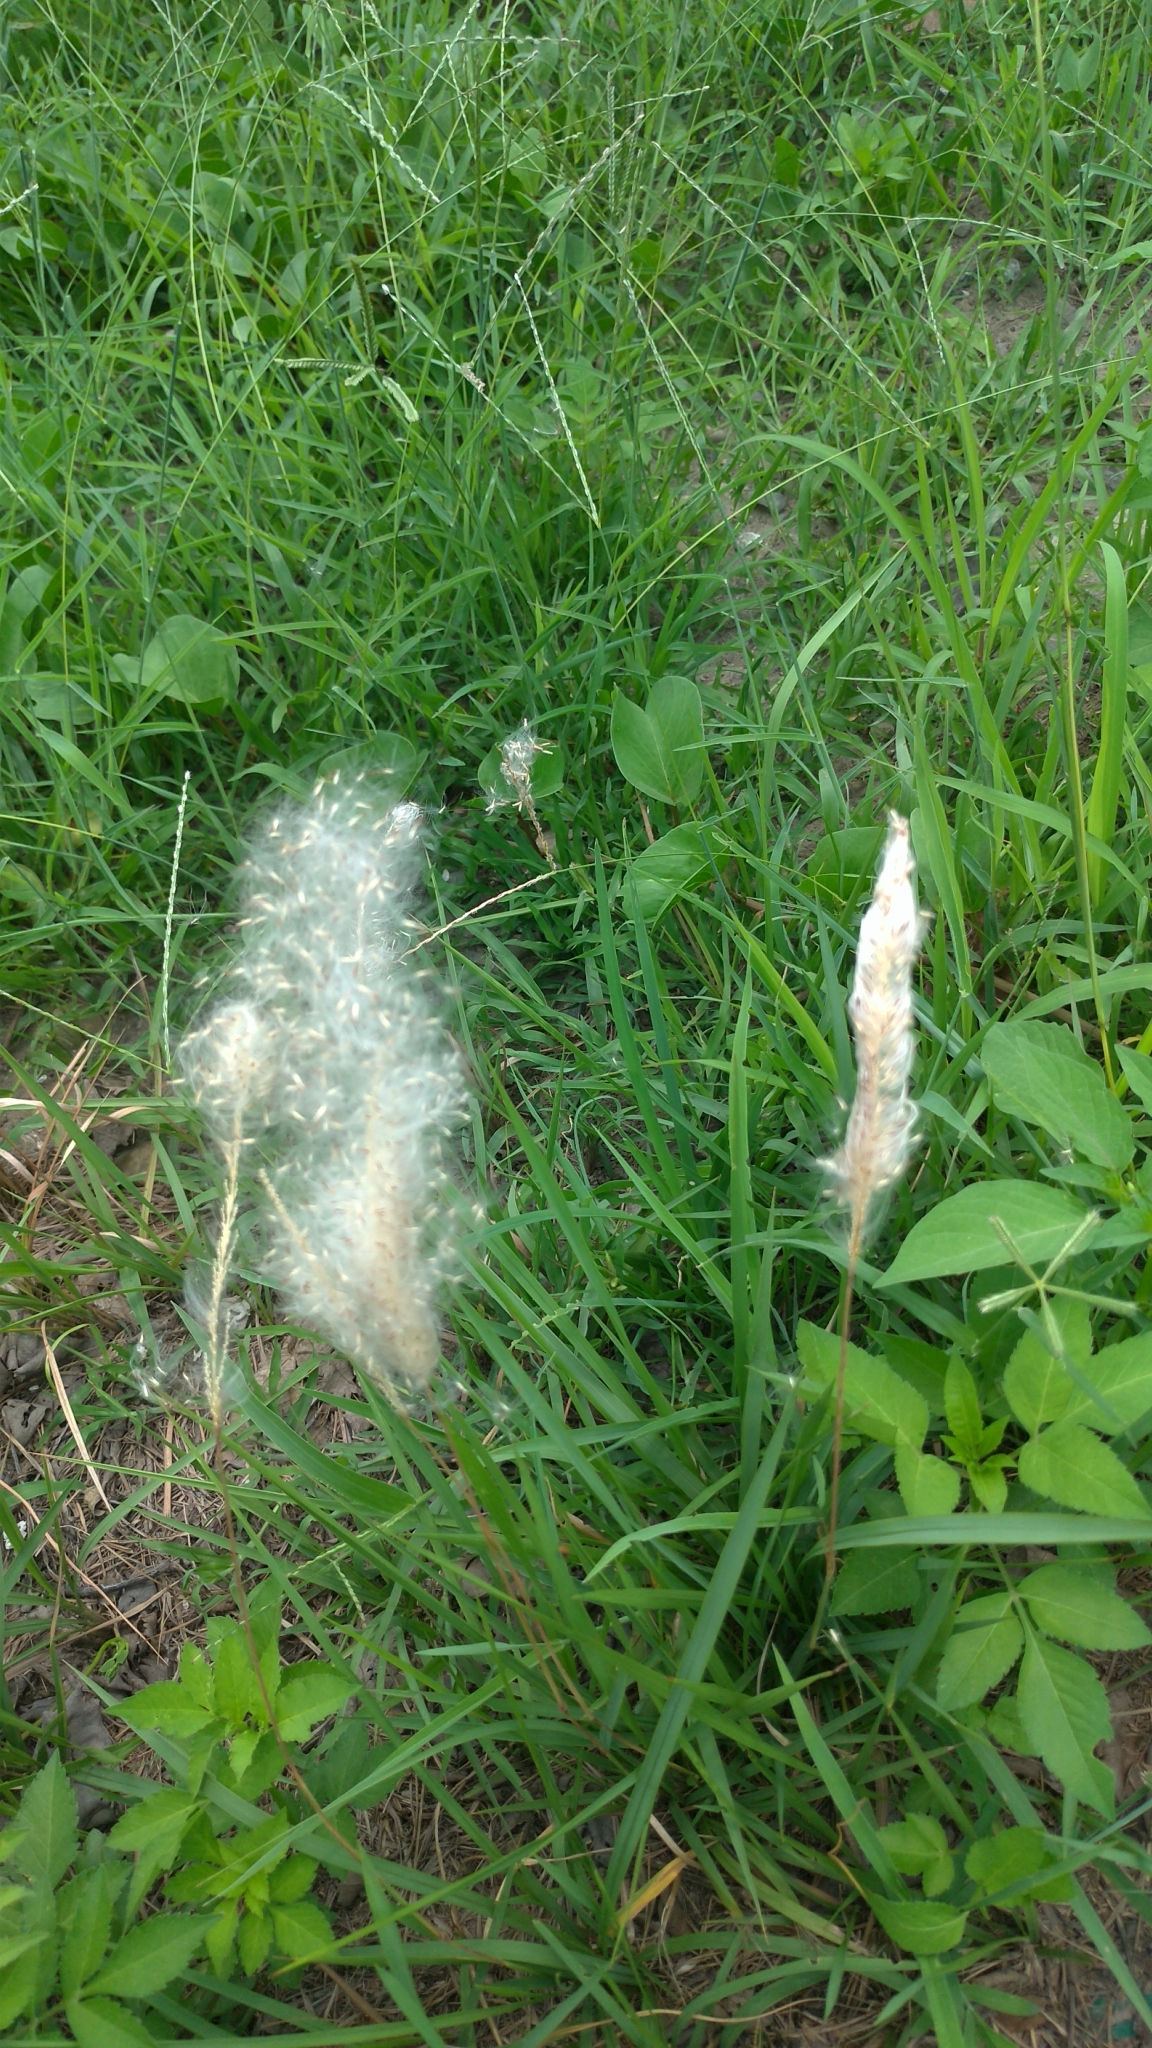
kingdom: Plantae
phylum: Tracheophyta
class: Liliopsida
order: Poales
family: Poaceae
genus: Imperata
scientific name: Imperata cylindrica
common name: Cogongrass
